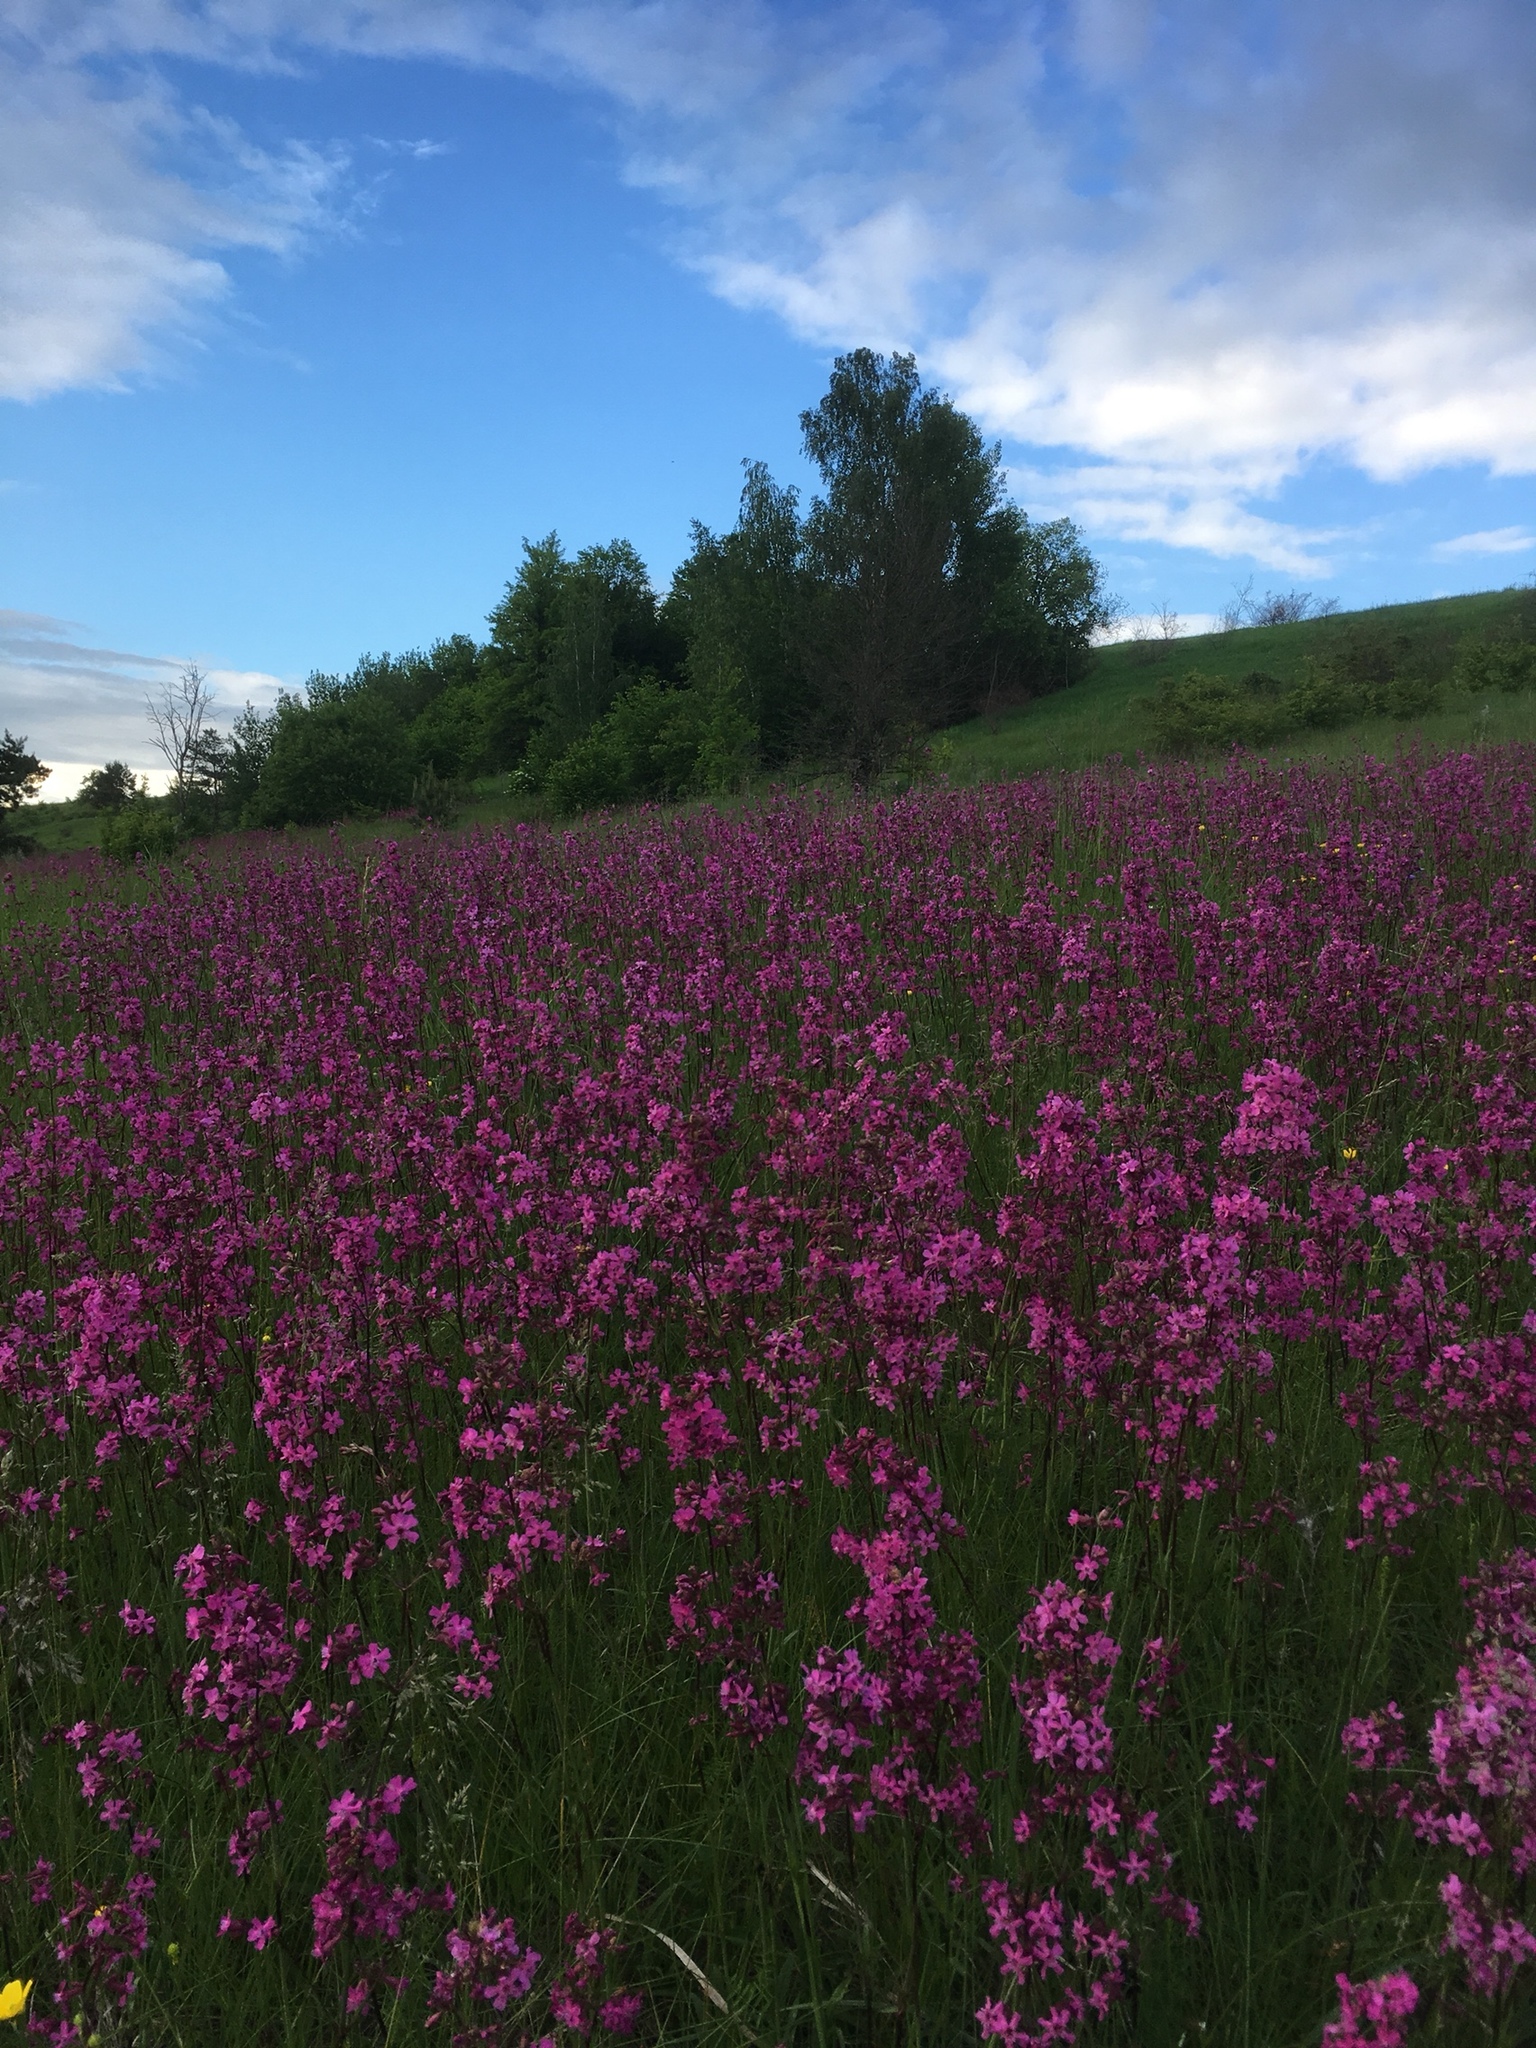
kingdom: Plantae
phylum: Tracheophyta
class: Magnoliopsida
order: Caryophyllales
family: Caryophyllaceae
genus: Viscaria
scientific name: Viscaria vulgaris
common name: Clammy campion
